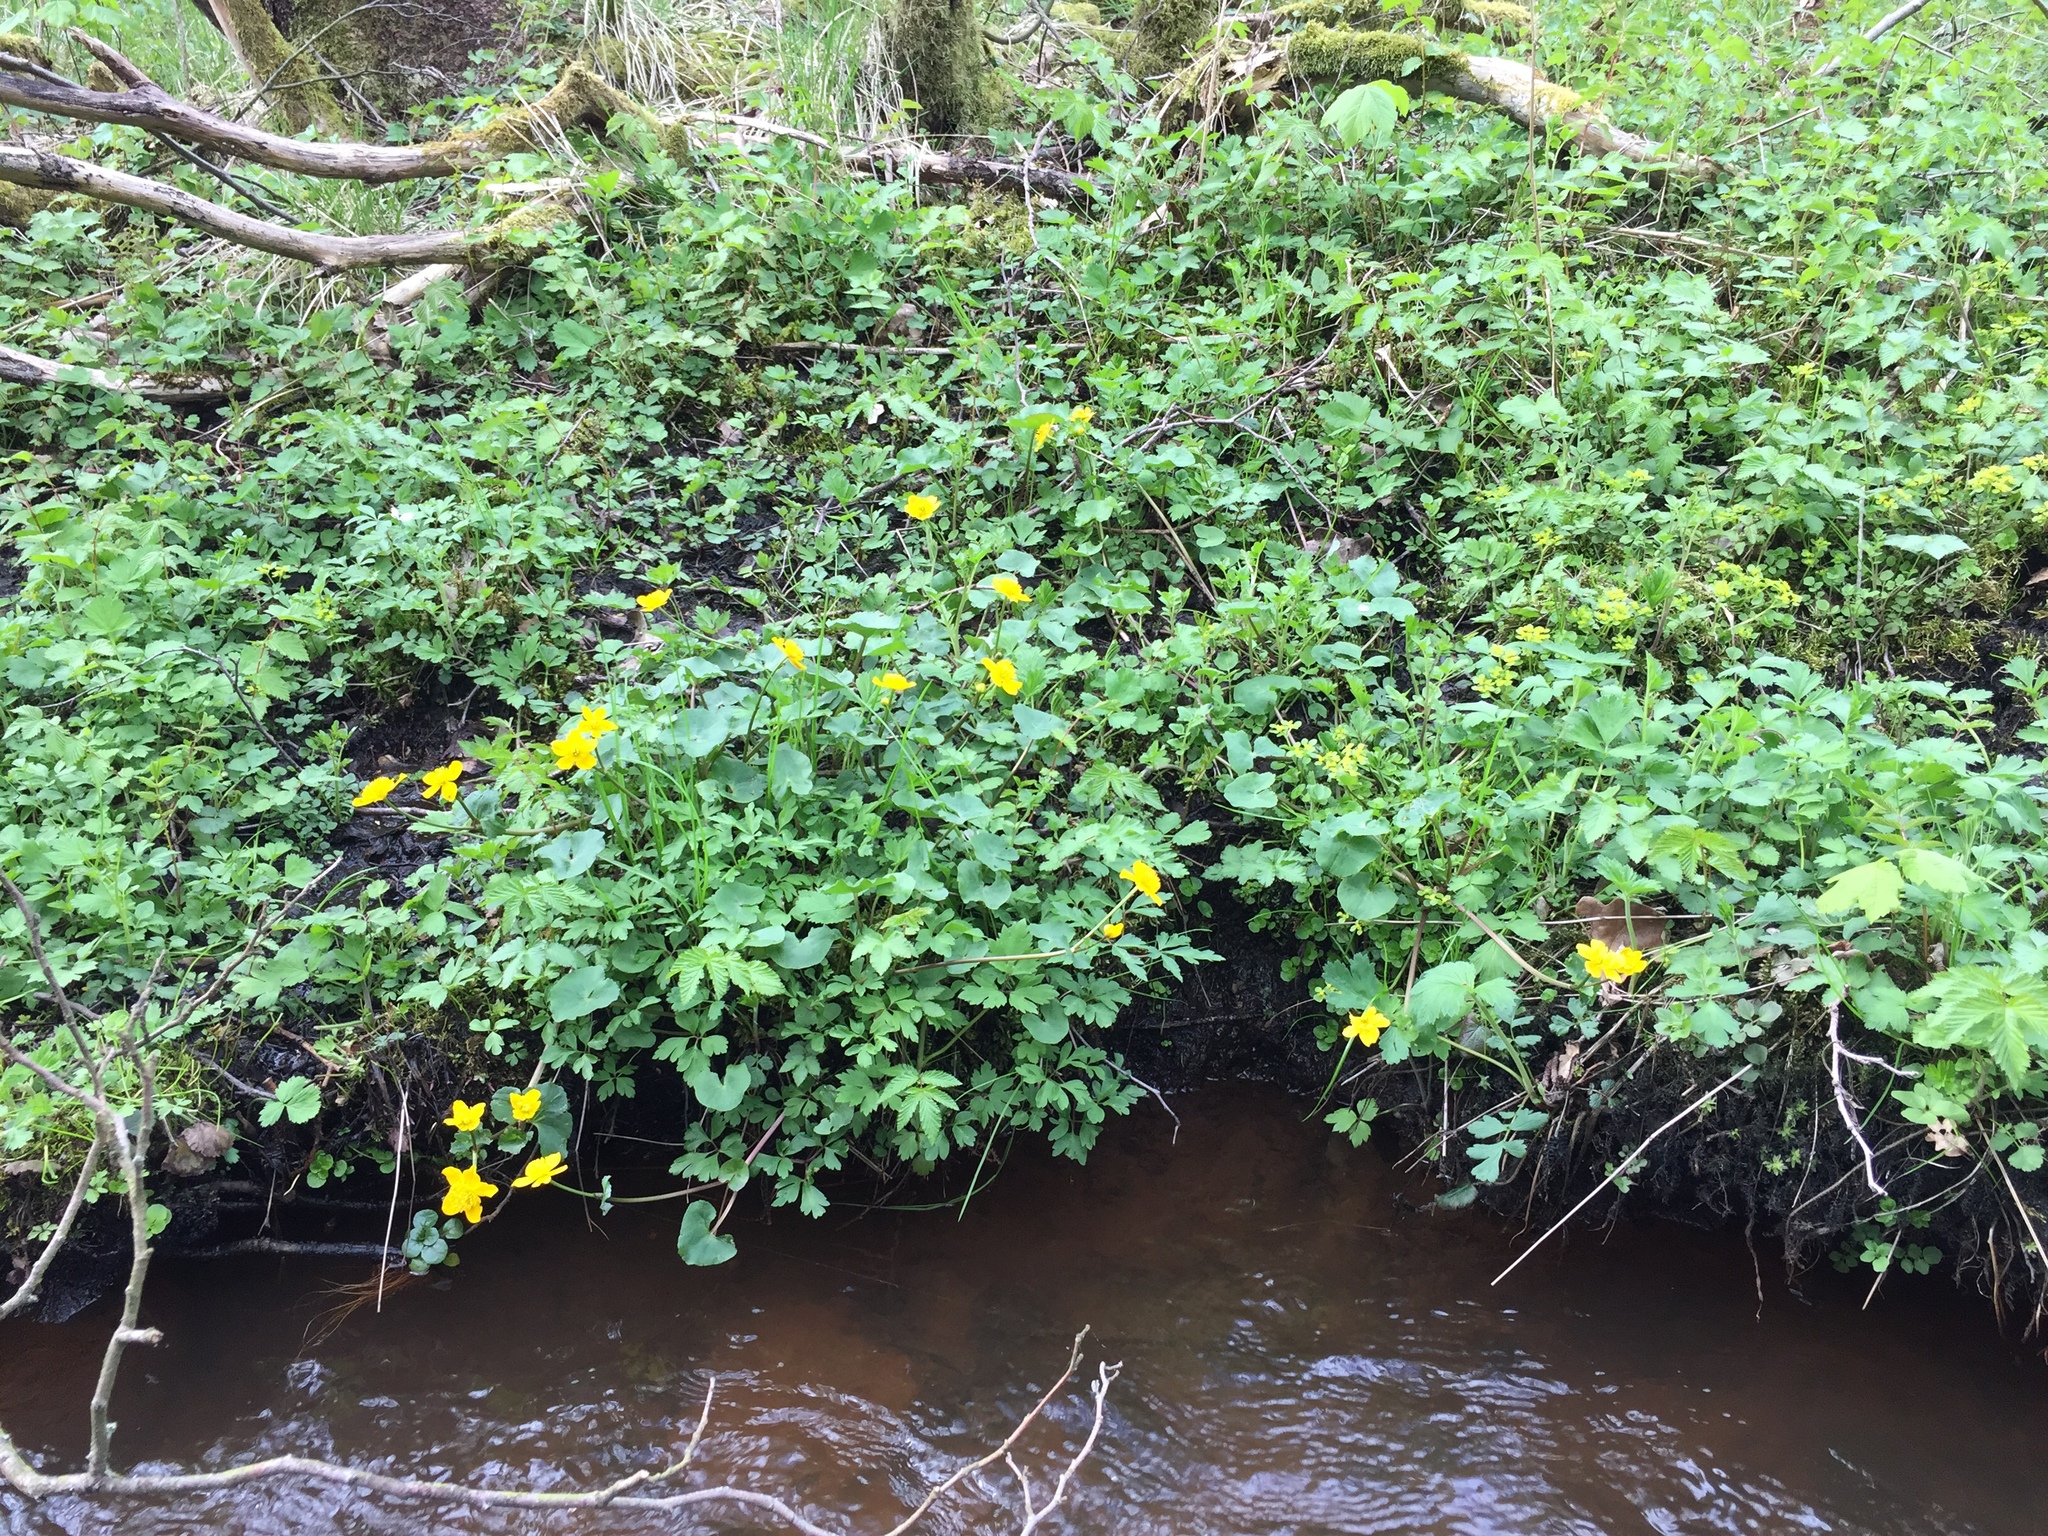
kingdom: Plantae
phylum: Tracheophyta
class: Magnoliopsida
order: Ranunculales
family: Ranunculaceae
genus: Caltha
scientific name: Caltha palustris
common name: Marsh marigold
